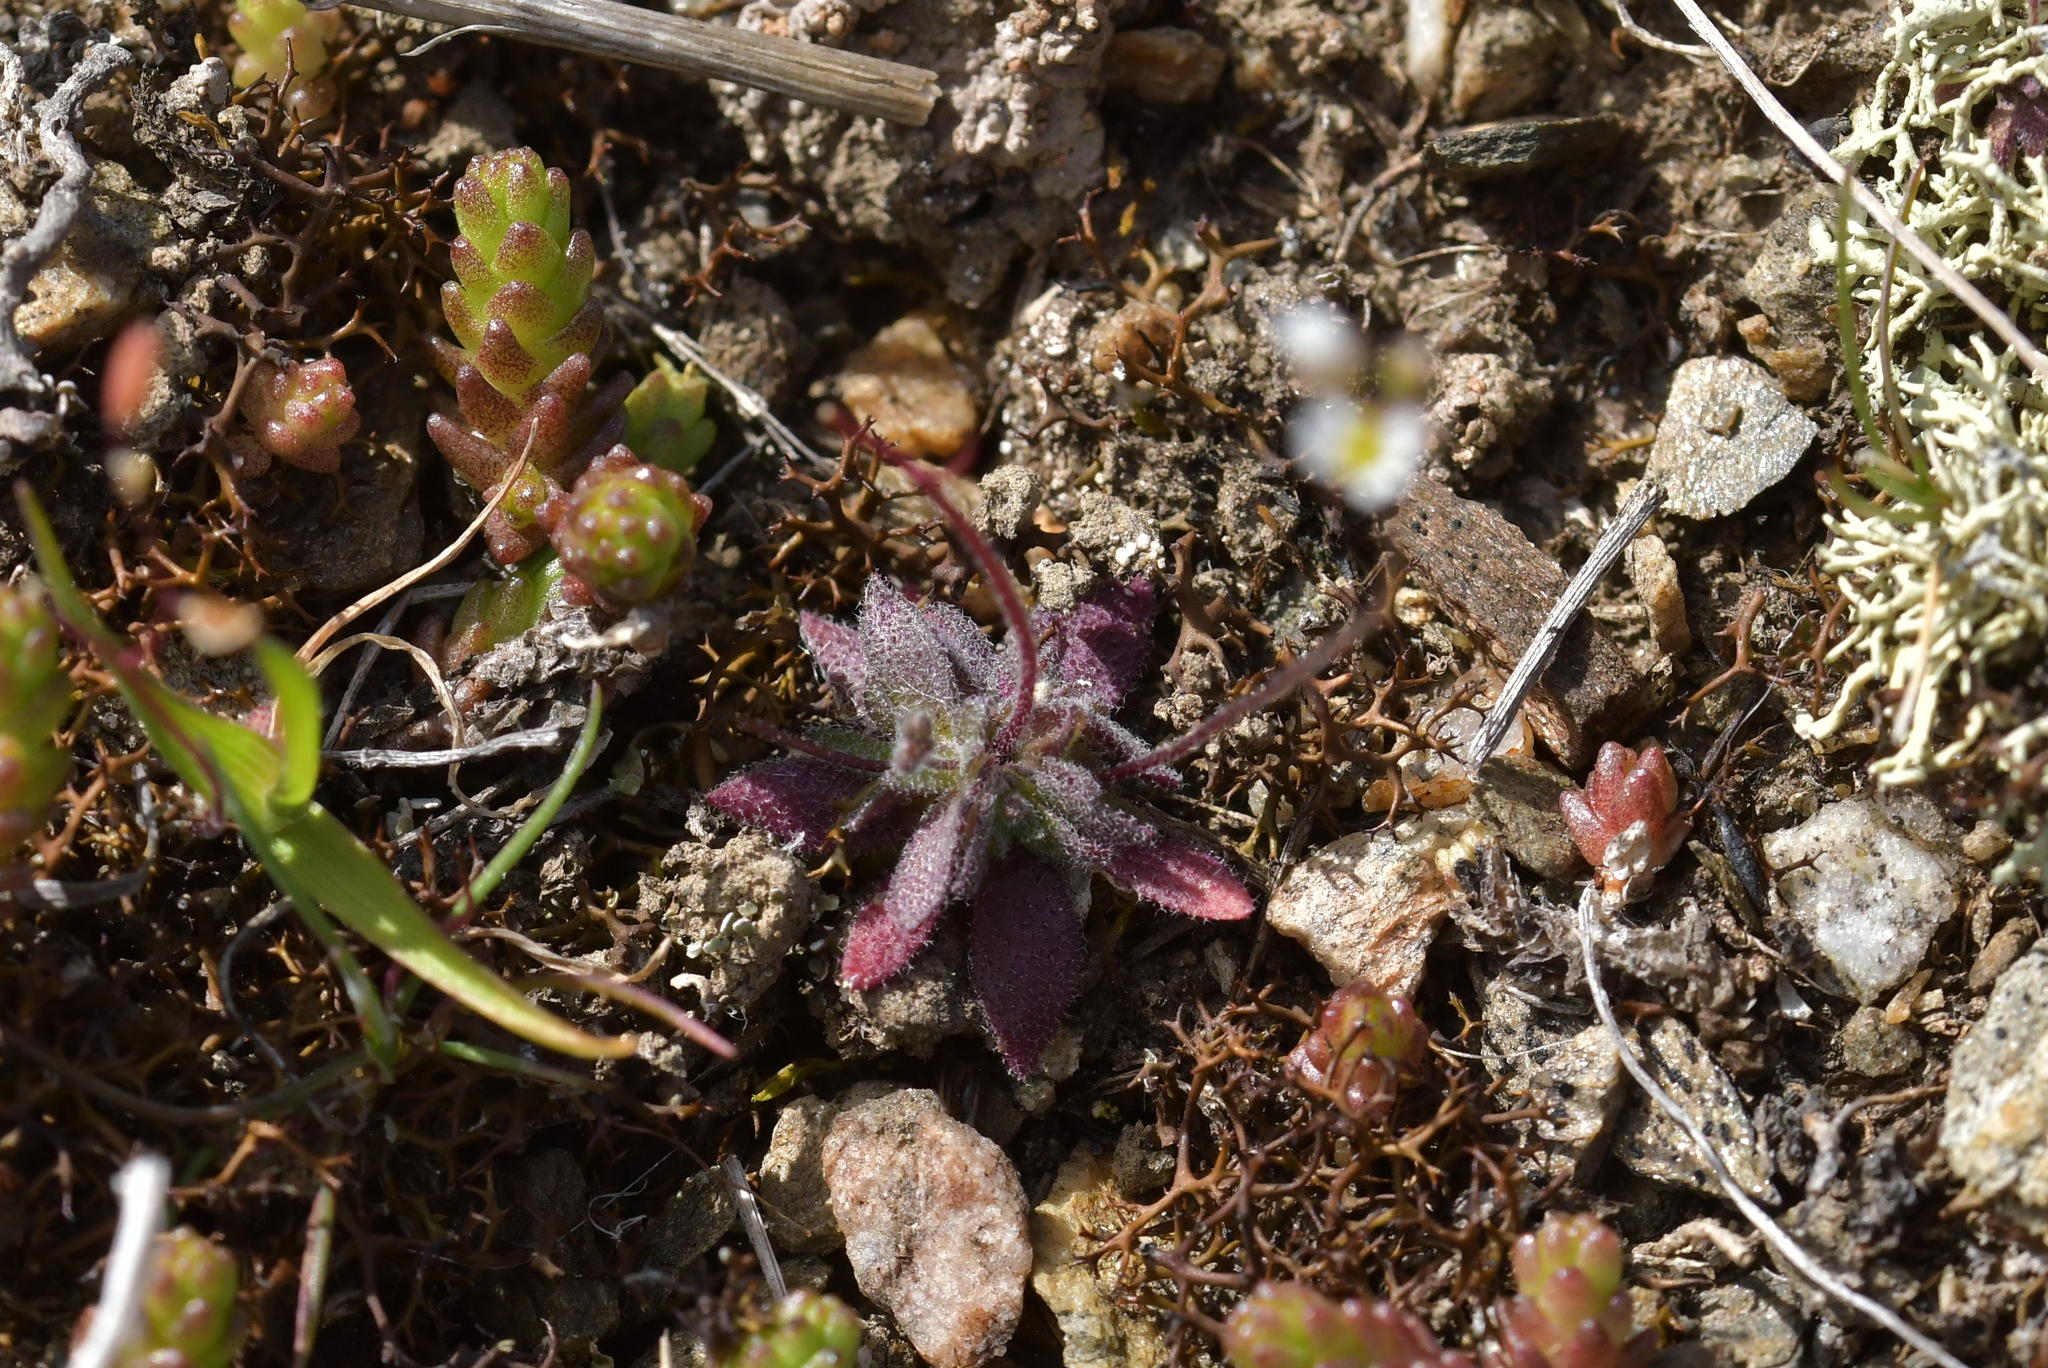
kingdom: Plantae
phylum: Tracheophyta
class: Magnoliopsida
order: Brassicales
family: Brassicaceae
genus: Draba
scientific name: Draba verna
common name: Spring draba
